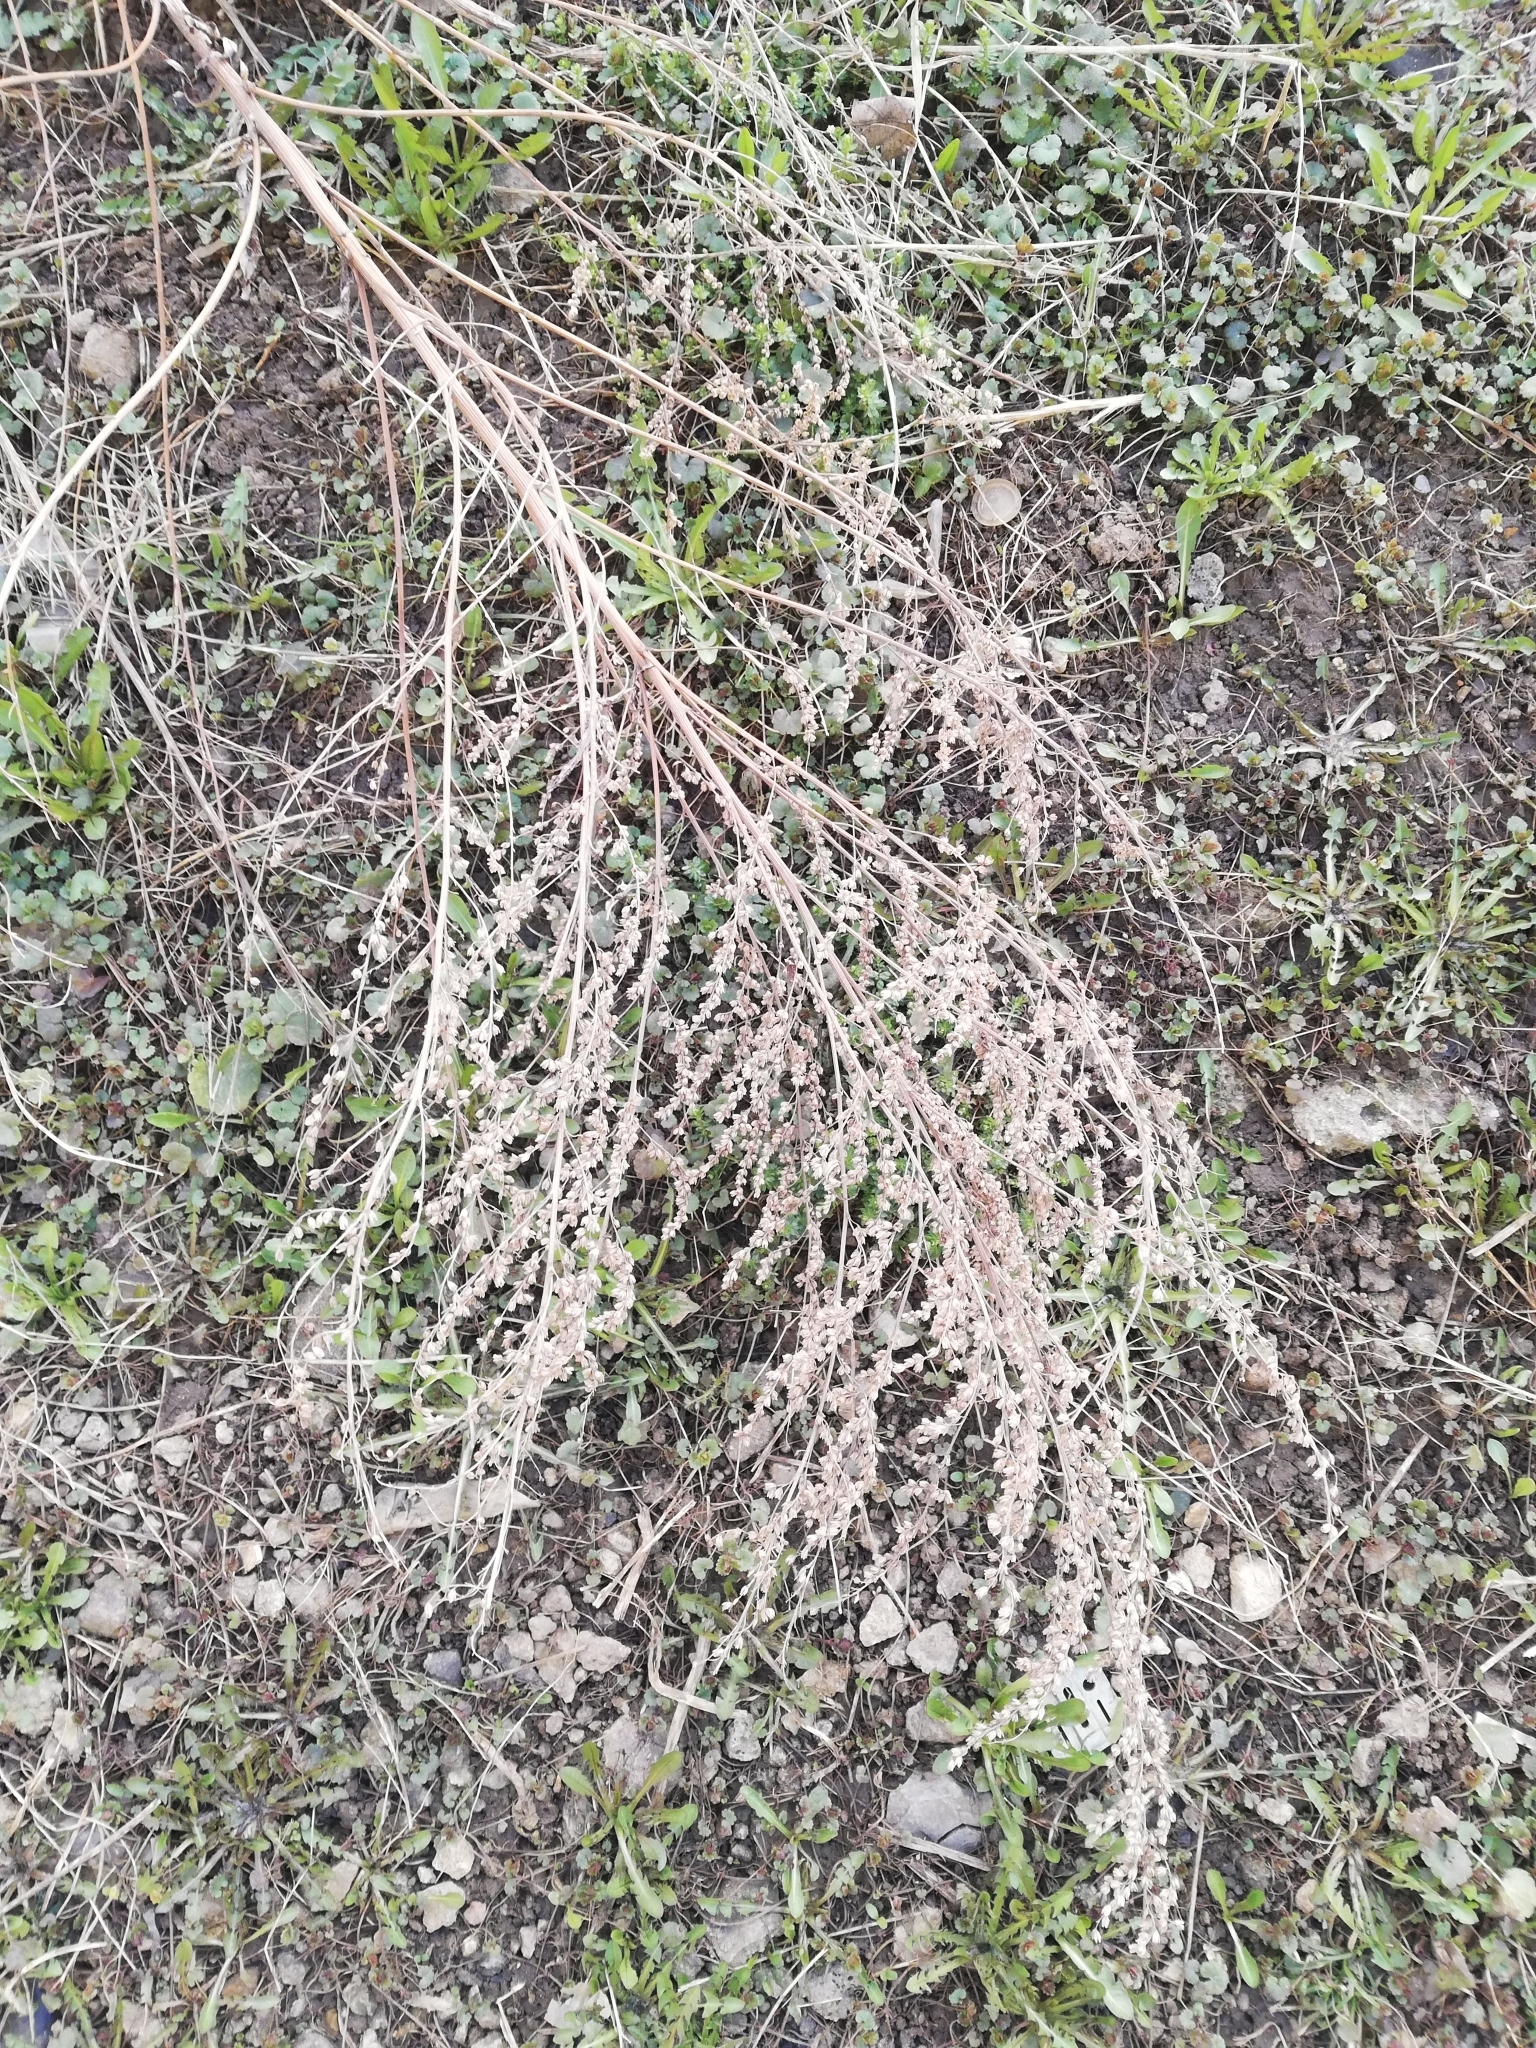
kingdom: Plantae
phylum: Tracheophyta
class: Magnoliopsida
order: Asterales
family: Asteraceae
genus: Artemisia
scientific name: Artemisia vulgaris
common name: Mugwort
